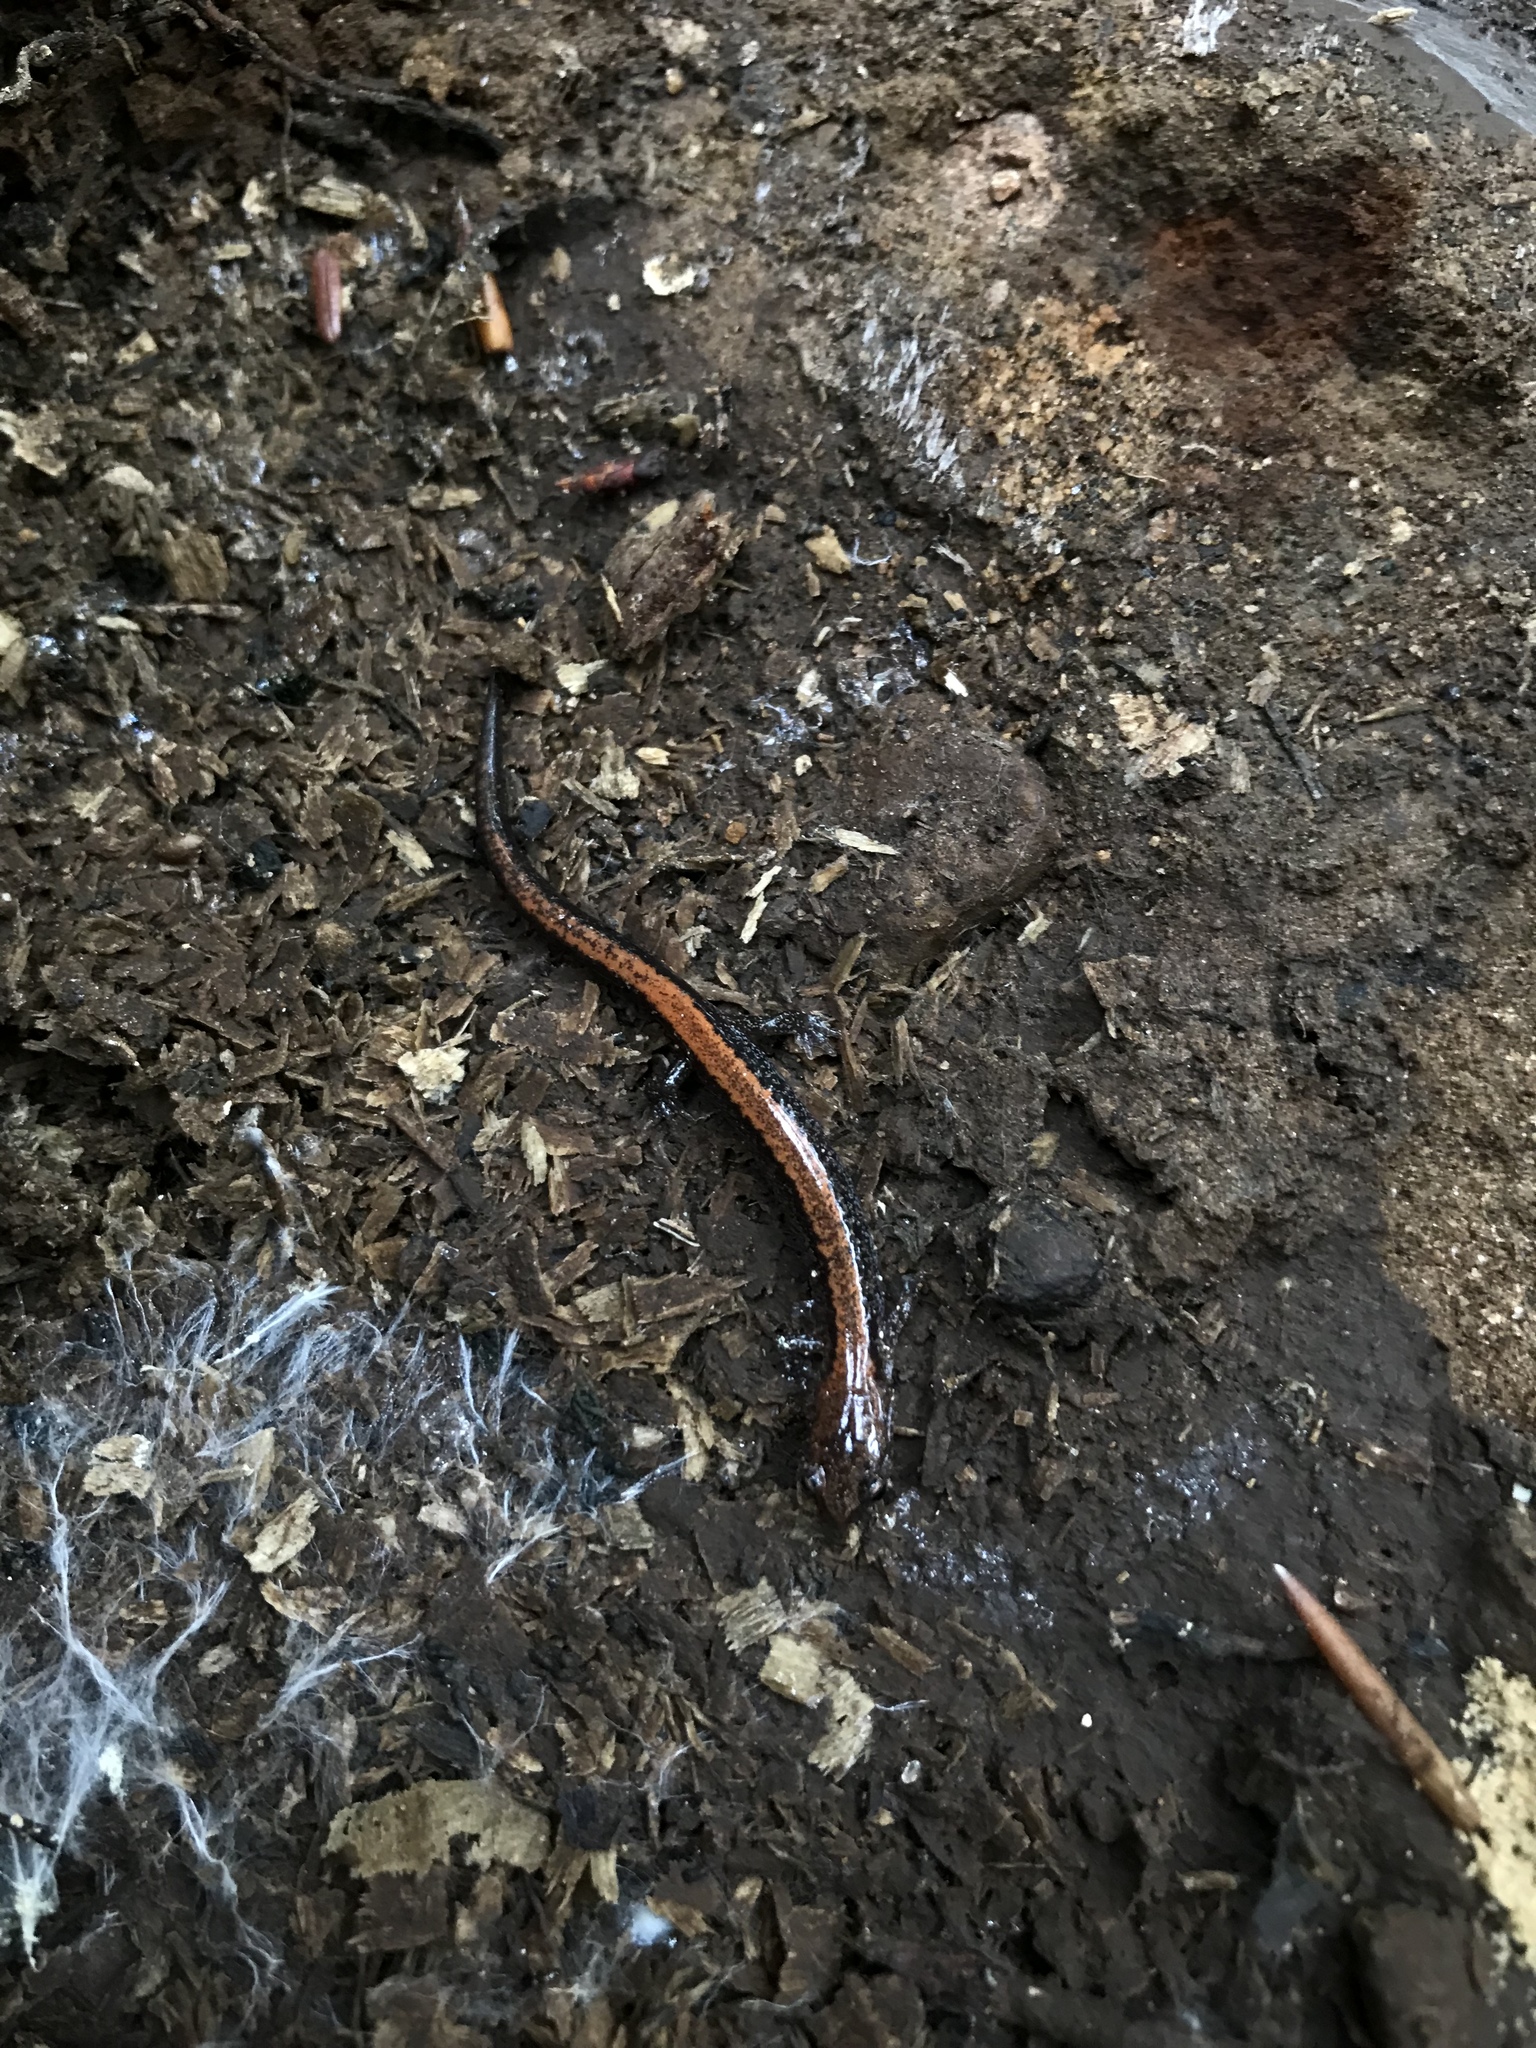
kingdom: Animalia
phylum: Chordata
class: Amphibia
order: Caudata
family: Plethodontidae
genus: Plethodon
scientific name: Plethodon cinereus
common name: Redback salamander
